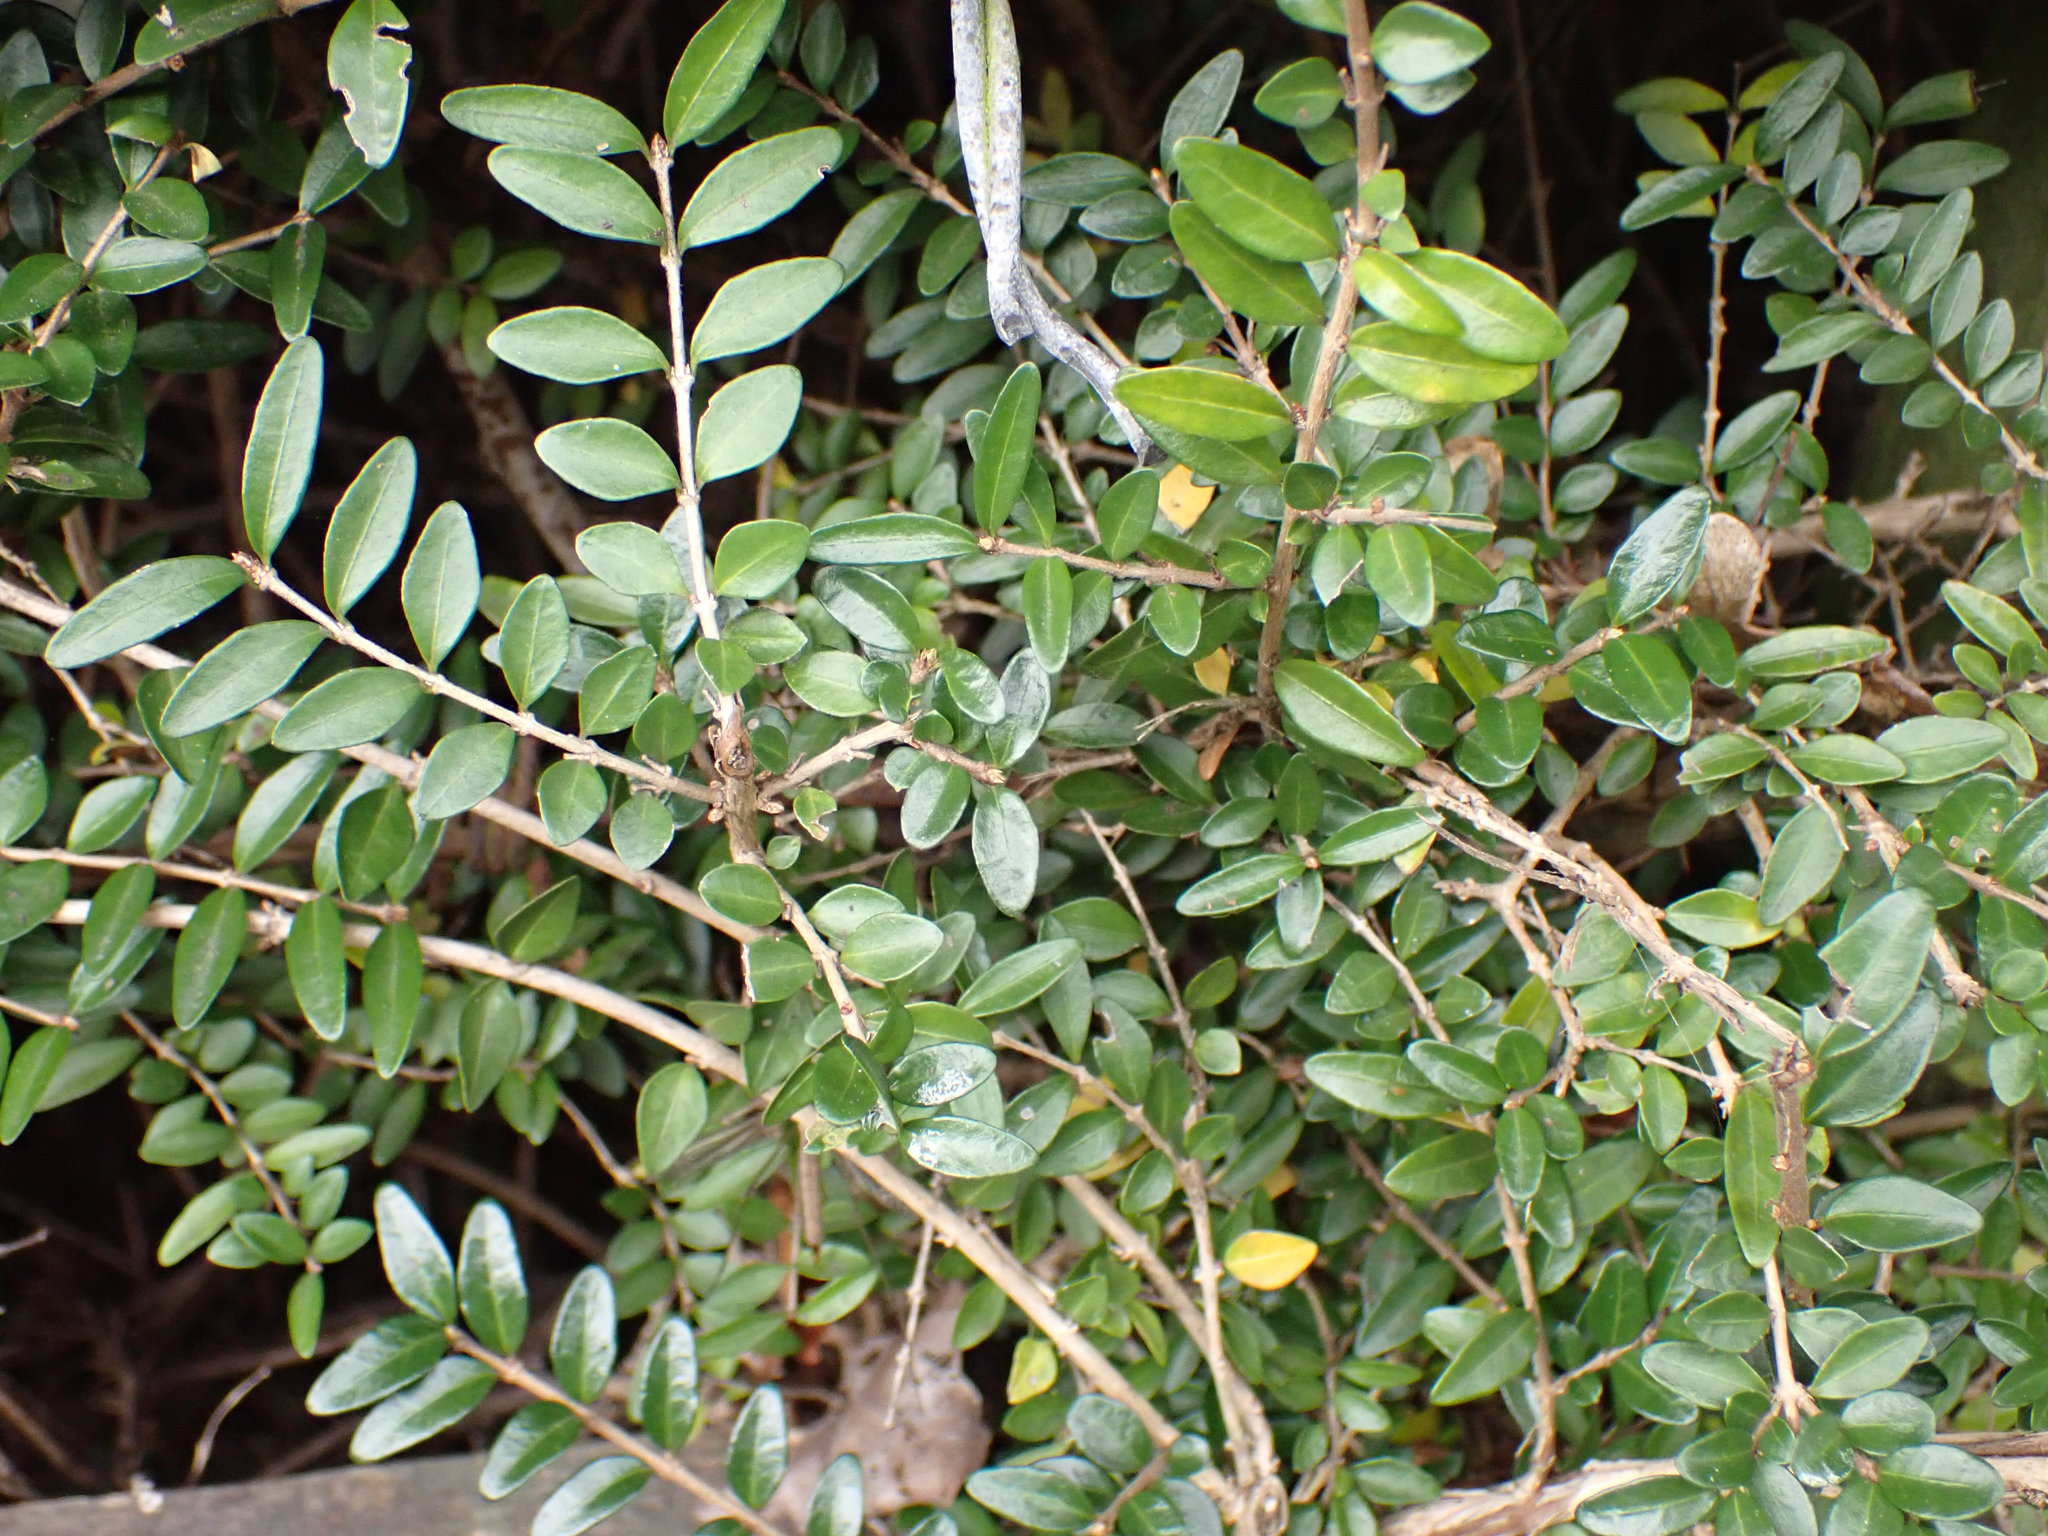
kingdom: Plantae
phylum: Tracheophyta
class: Magnoliopsida
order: Dipsacales
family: Caprifoliaceae
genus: Lonicera
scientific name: Lonicera pileata
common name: Box-leaved honeysuckle
